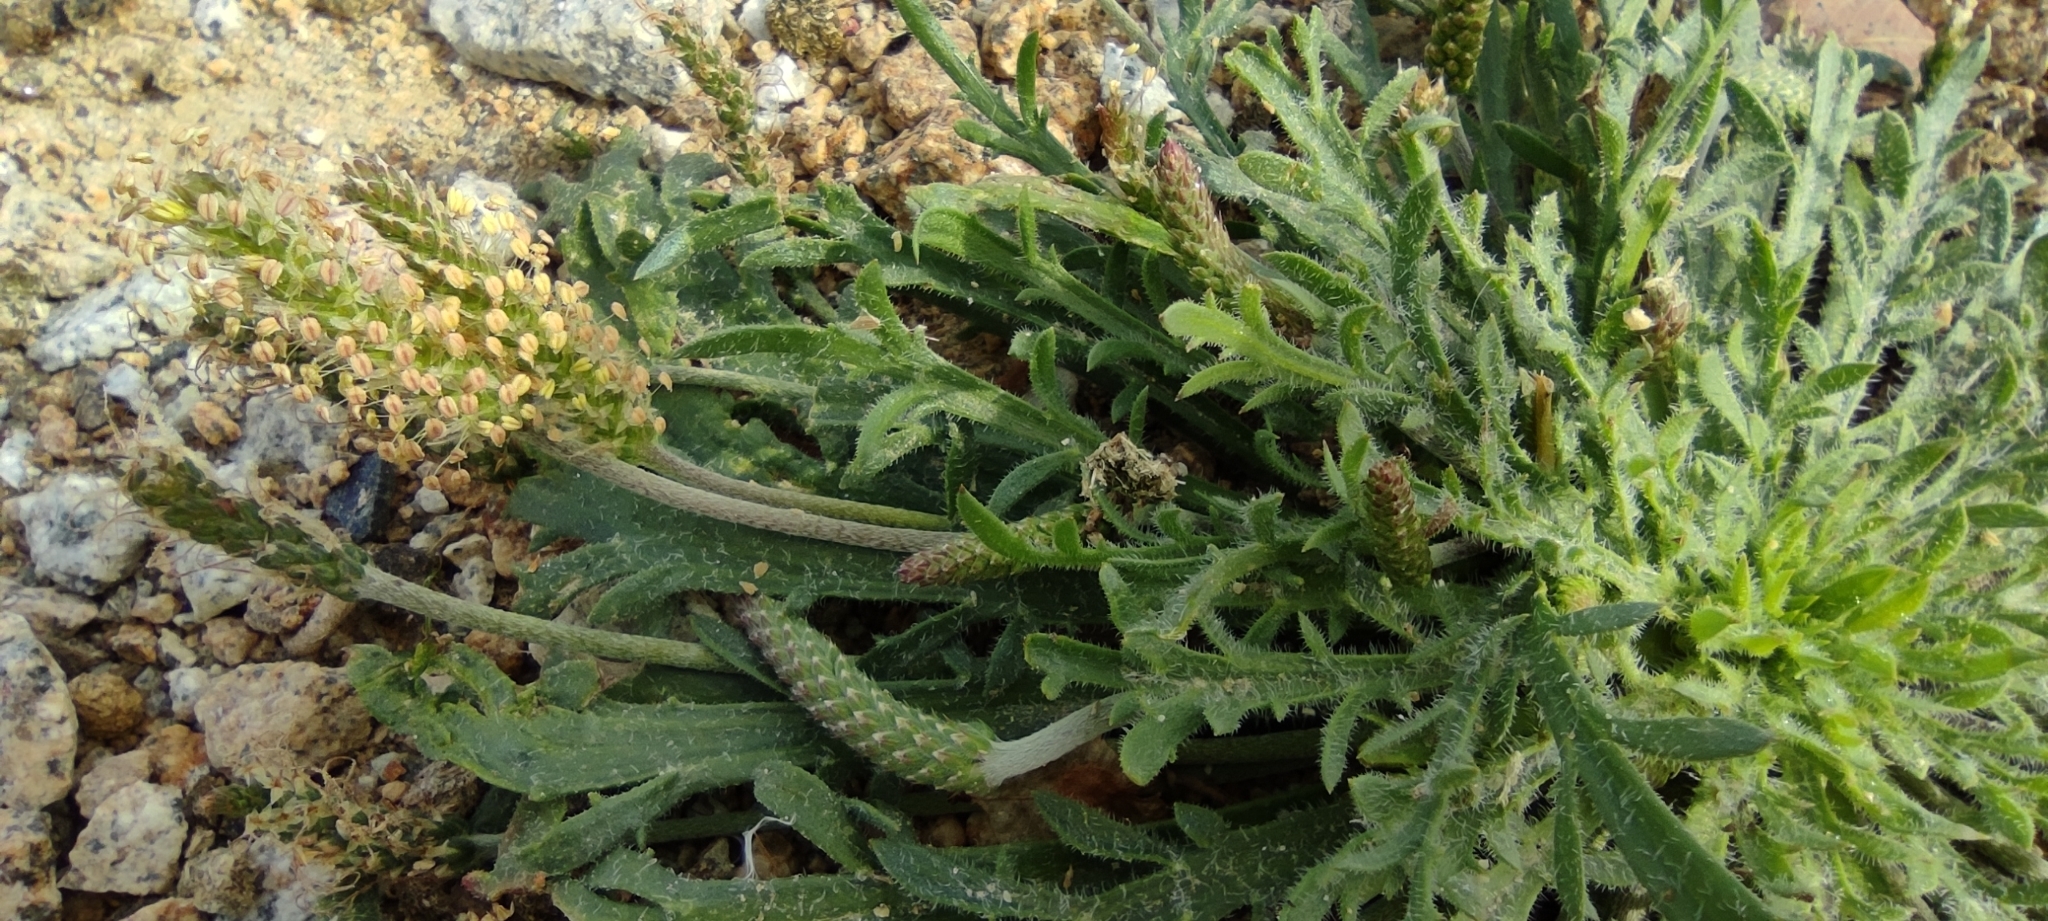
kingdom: Plantae
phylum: Tracheophyta
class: Magnoliopsida
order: Lamiales
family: Plantaginaceae
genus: Plantago
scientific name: Plantago coronopus
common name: Buck's-horn plantain
